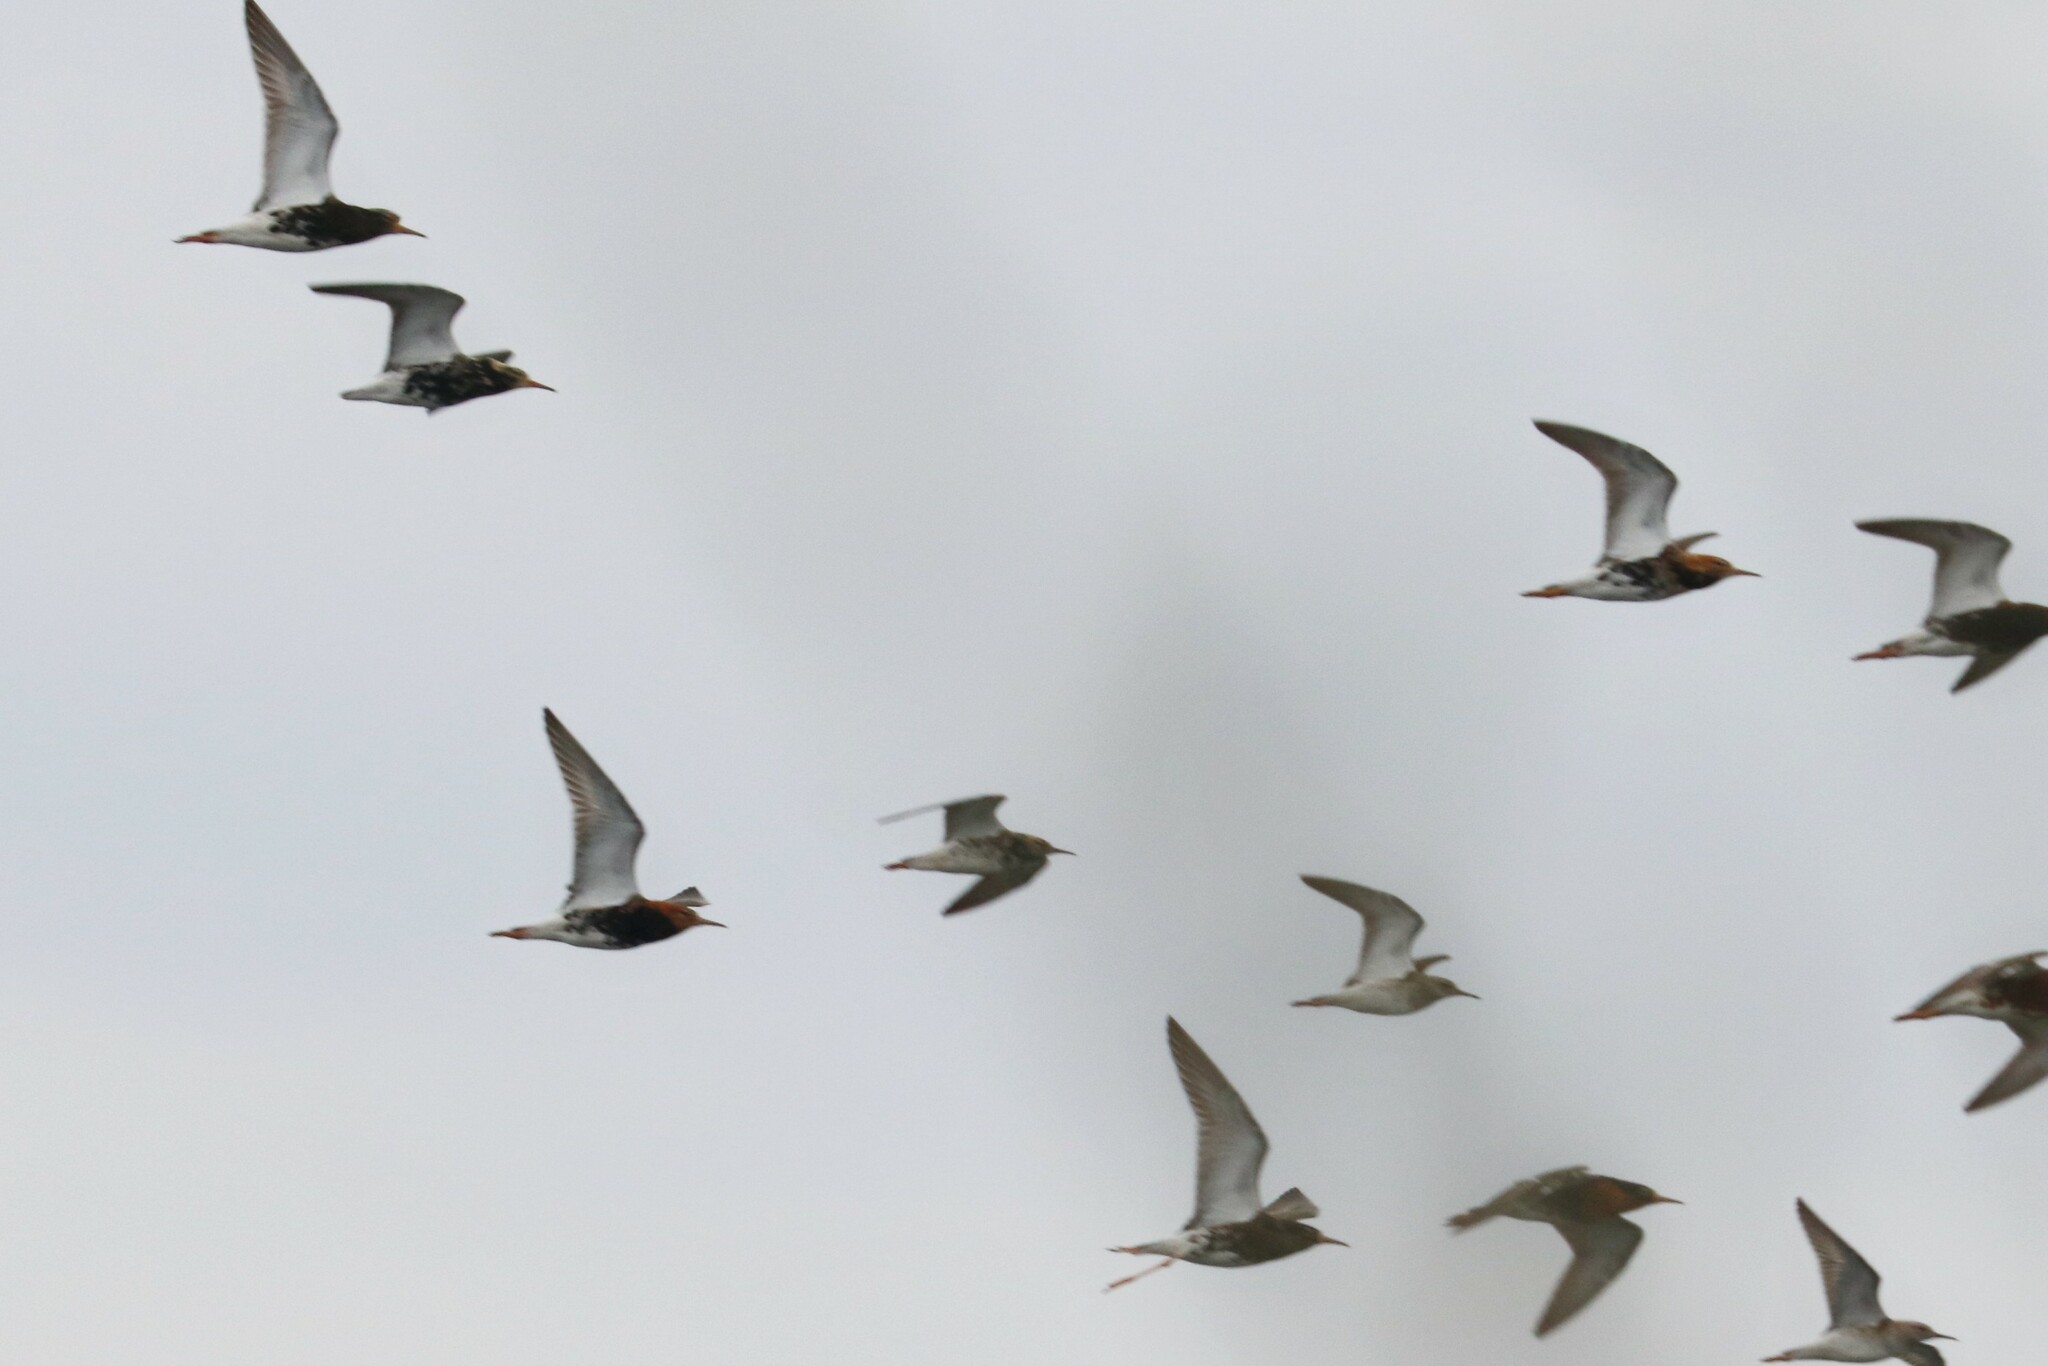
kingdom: Animalia
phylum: Chordata
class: Aves
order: Charadriiformes
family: Scolopacidae
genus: Calidris
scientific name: Calidris pugnax
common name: Ruff
